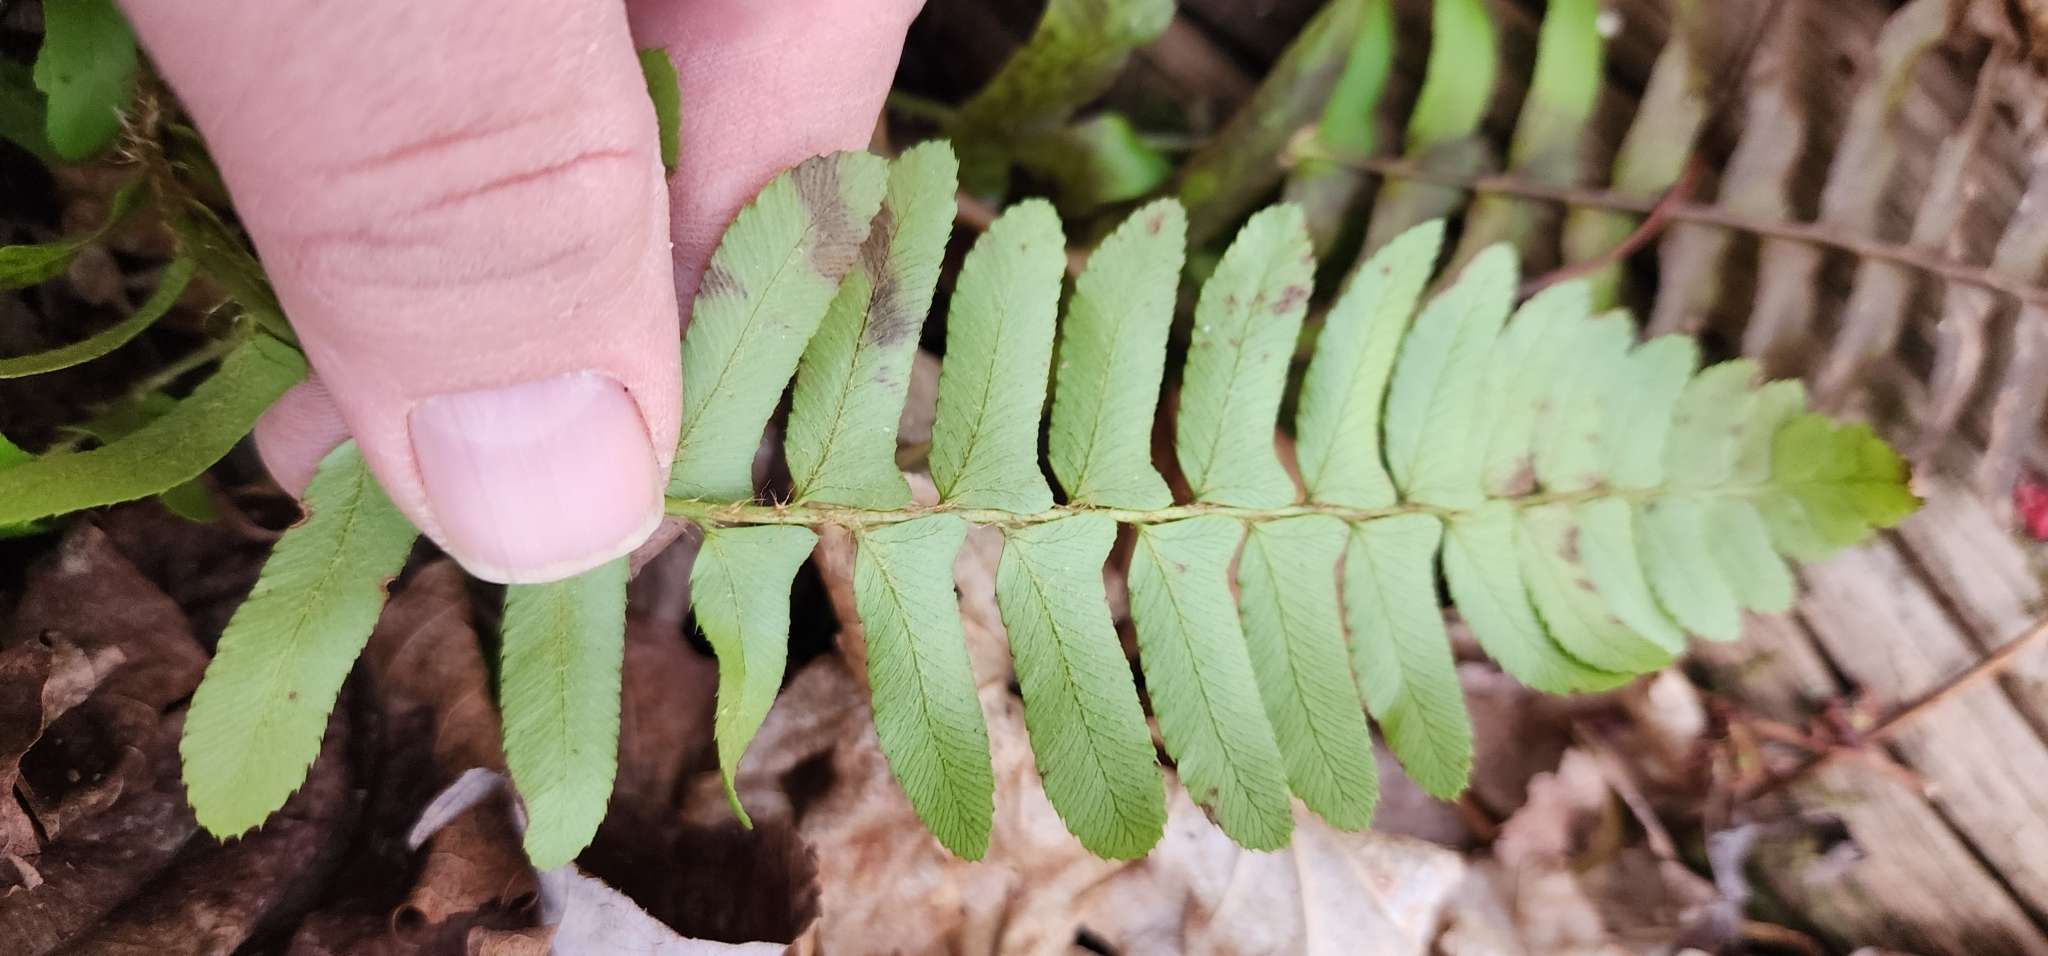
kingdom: Plantae
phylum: Tracheophyta
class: Polypodiopsida
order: Polypodiales
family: Dryopteridaceae
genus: Polystichum
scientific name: Polystichum acrostichoides
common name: Christmas fern
